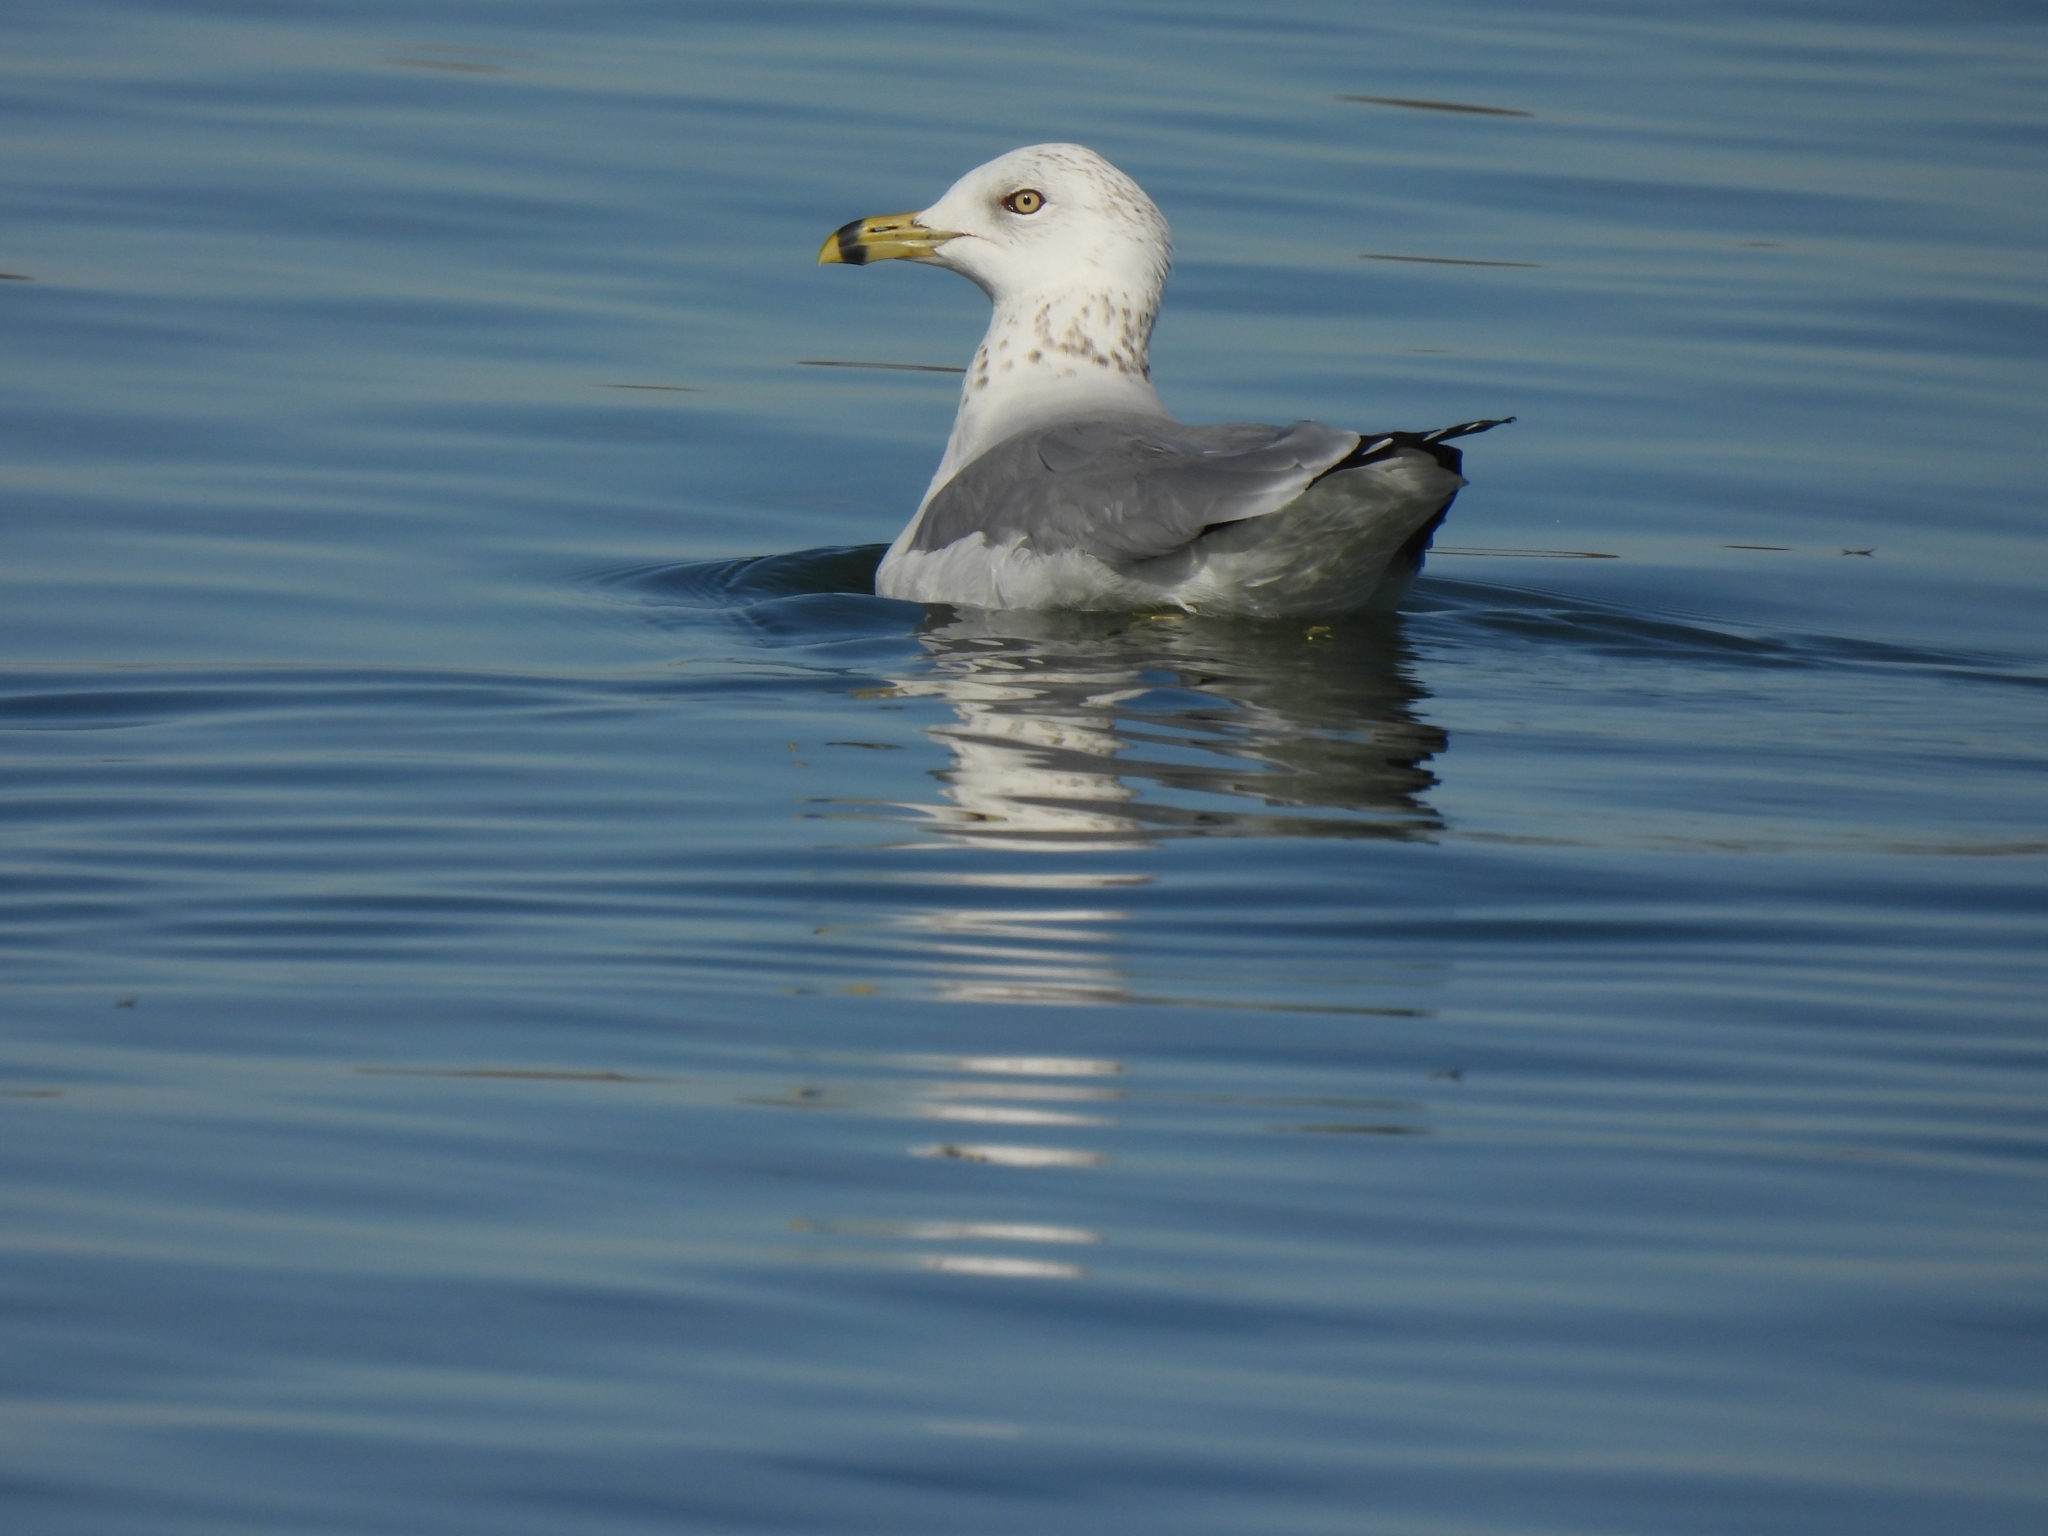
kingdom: Animalia
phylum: Chordata
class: Aves
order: Charadriiformes
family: Laridae
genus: Larus
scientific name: Larus delawarensis
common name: Ring-billed gull
